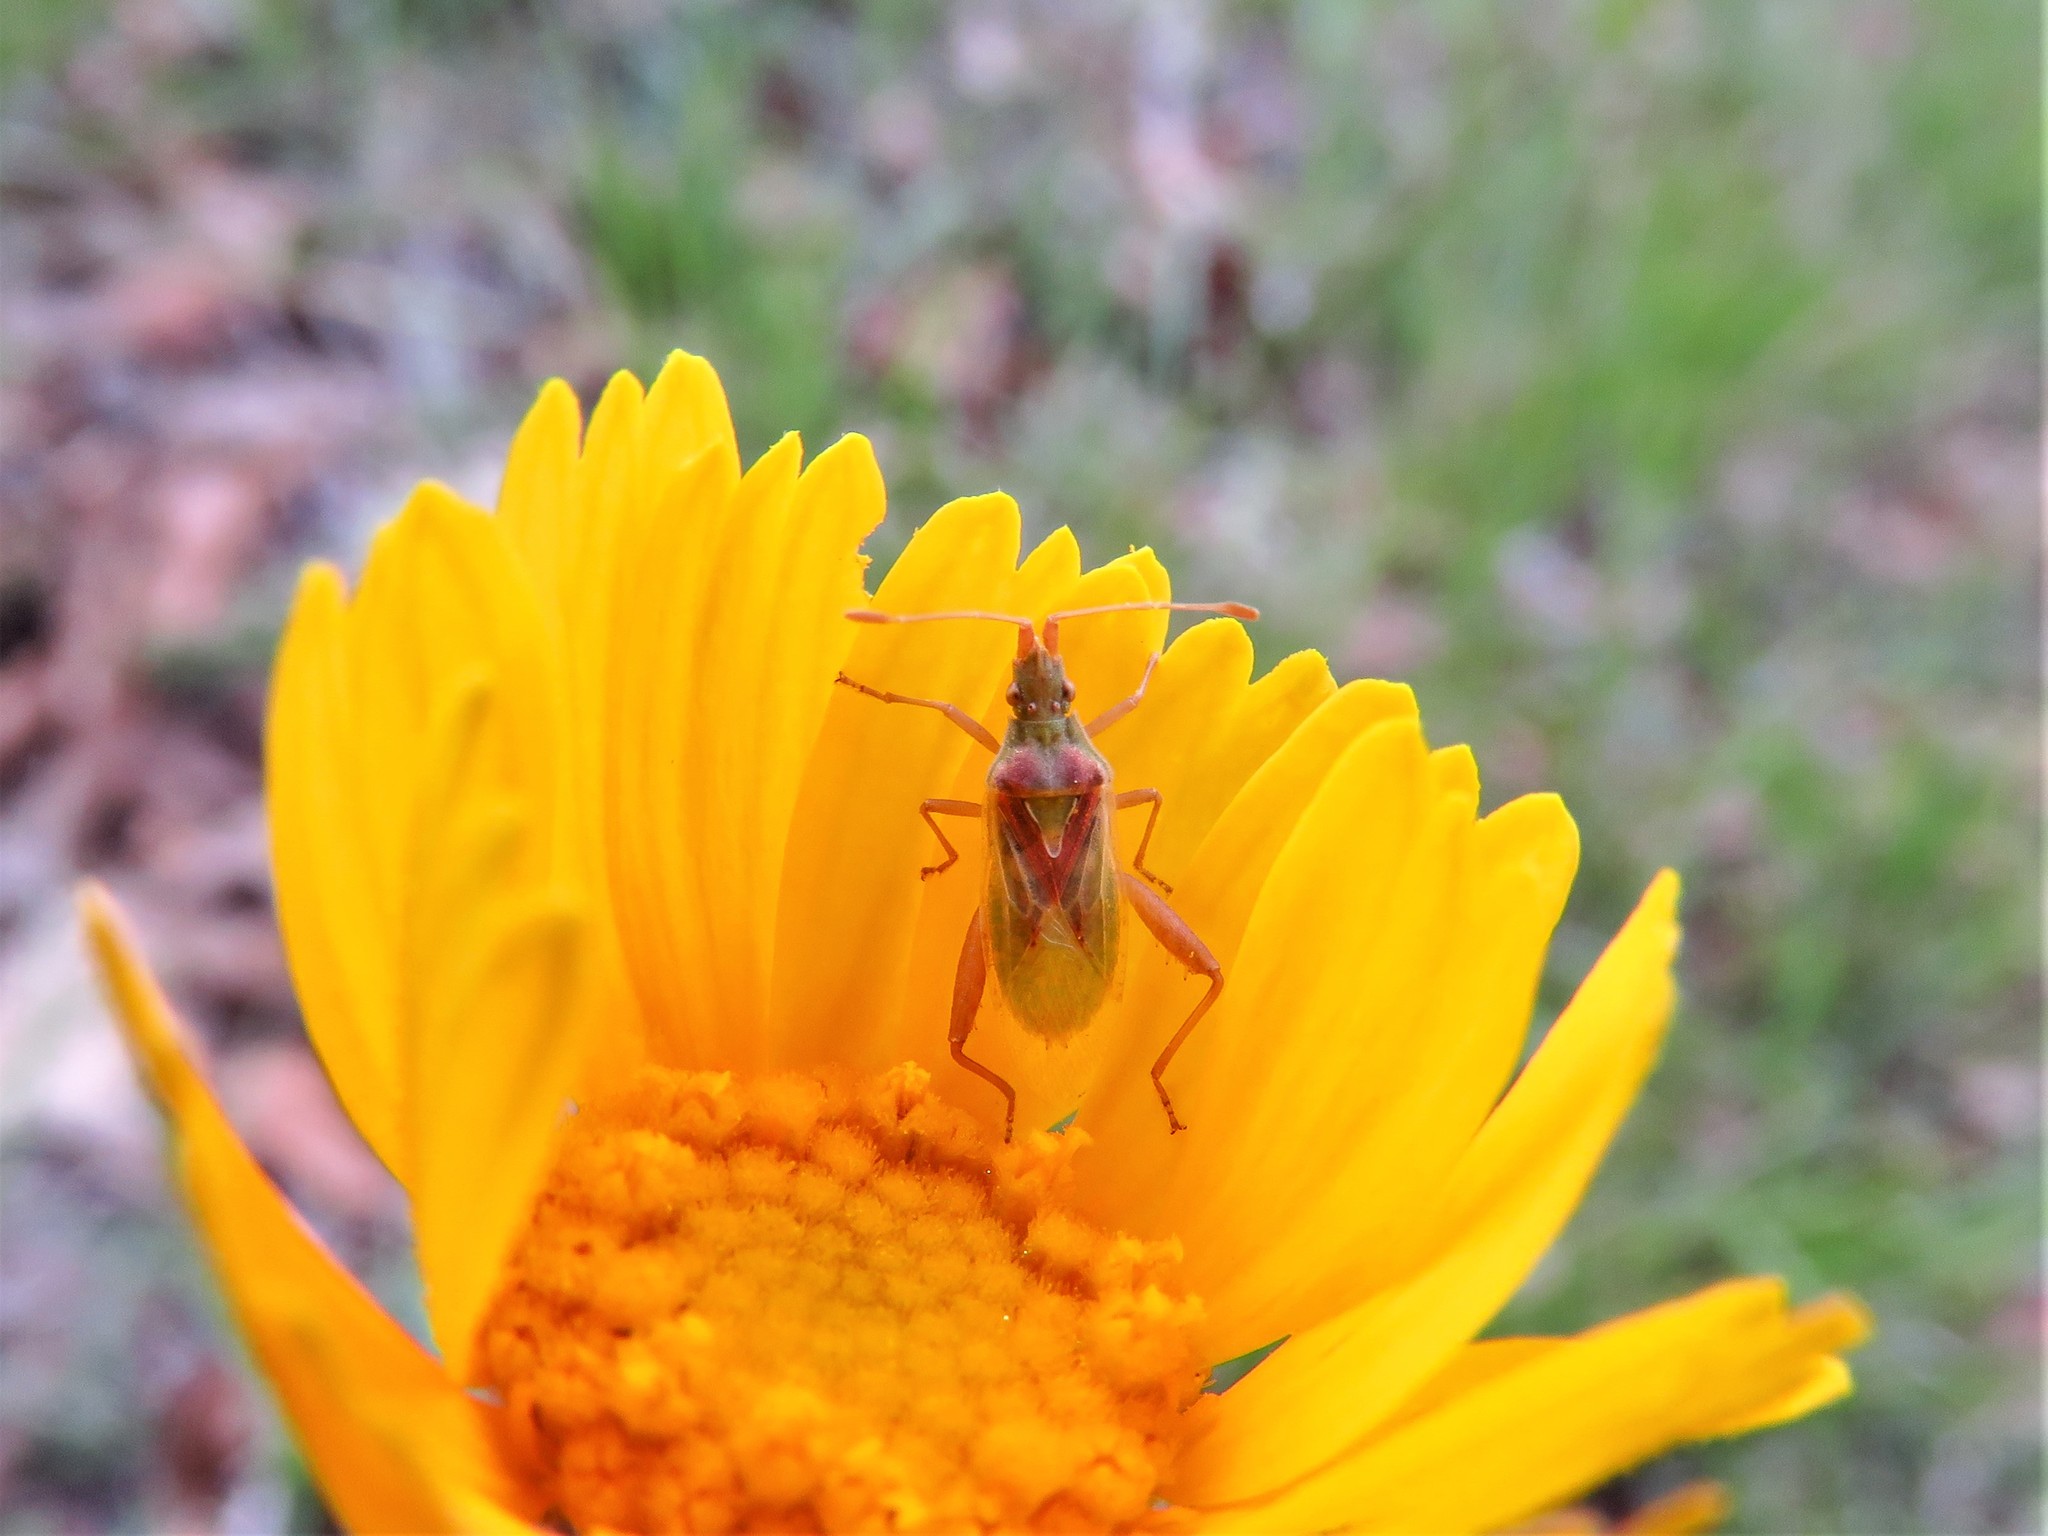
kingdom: Animalia
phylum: Arthropoda
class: Insecta
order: Hemiptera
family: Rhopalidae
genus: Harmostes
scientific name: Harmostes reflexulus
